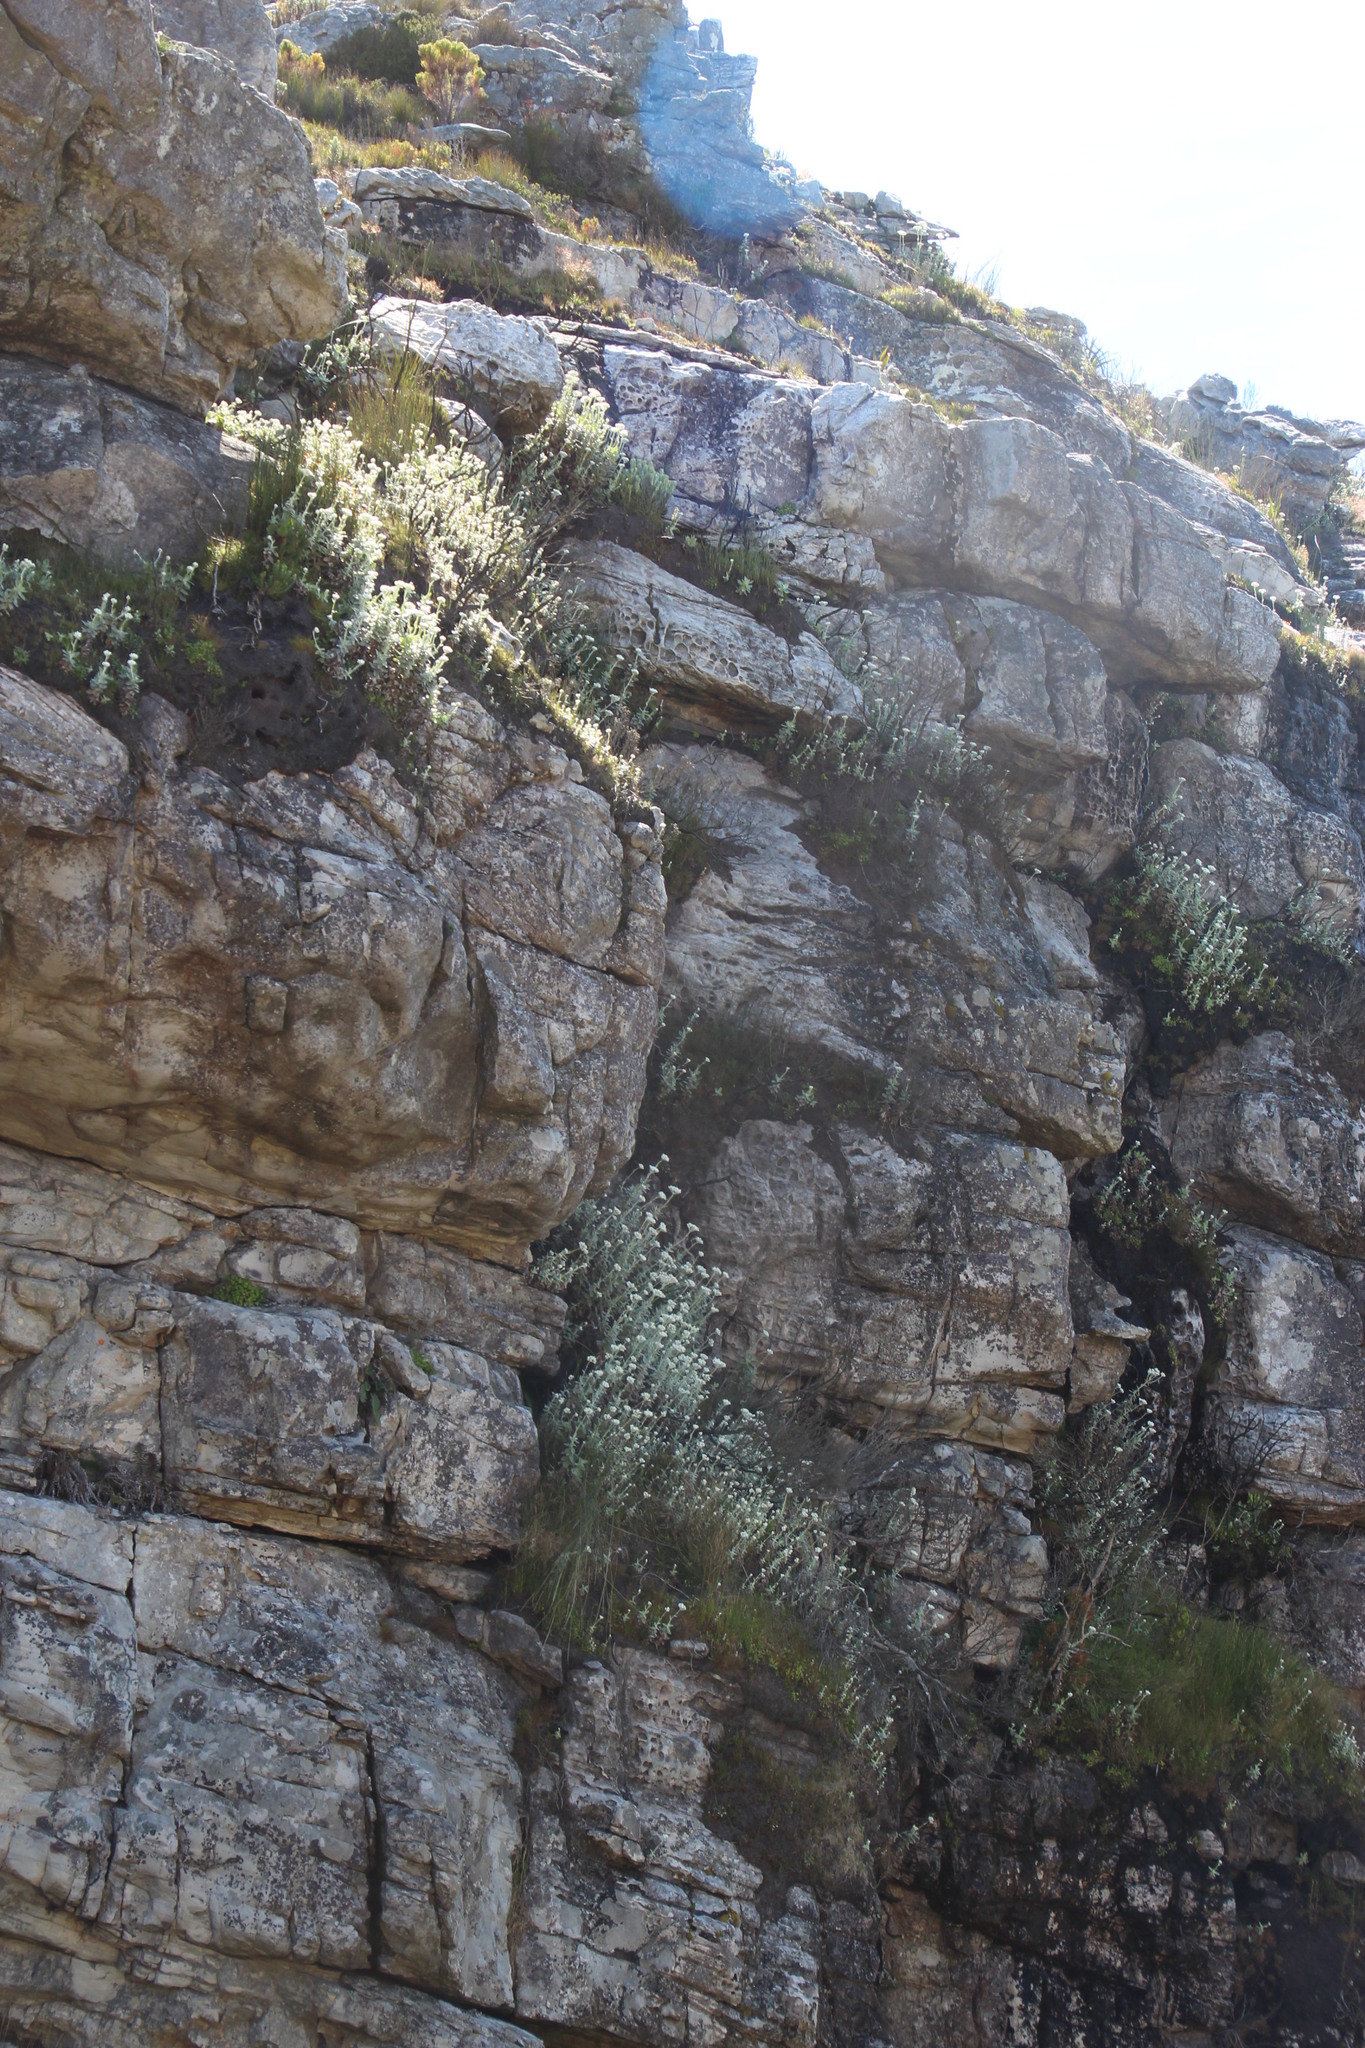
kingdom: Plantae
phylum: Tracheophyta
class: Magnoliopsida
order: Asterales
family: Asteraceae
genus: Helichrysum
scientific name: Helichrysum fruticans
